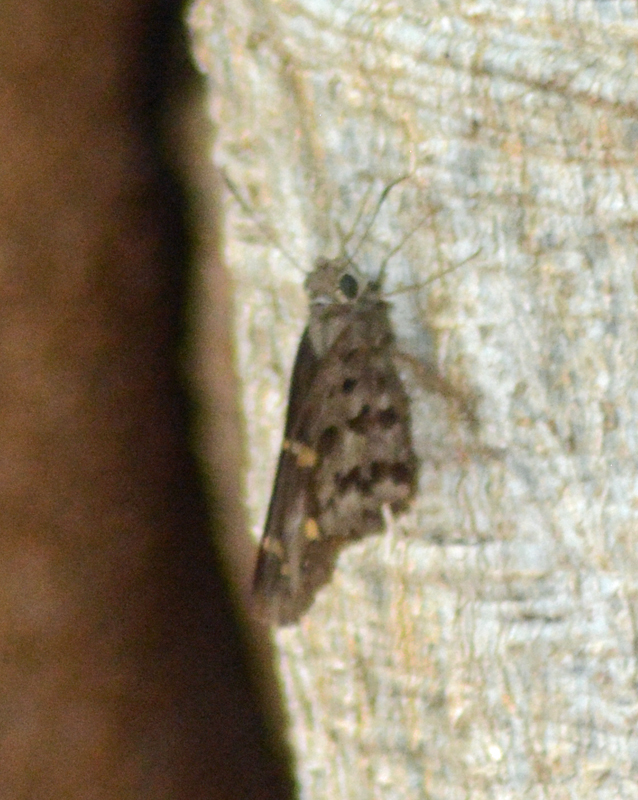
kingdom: Animalia
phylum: Arthropoda
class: Insecta
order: Lepidoptera
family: Hesperiidae
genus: Thorybes
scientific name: Thorybes
